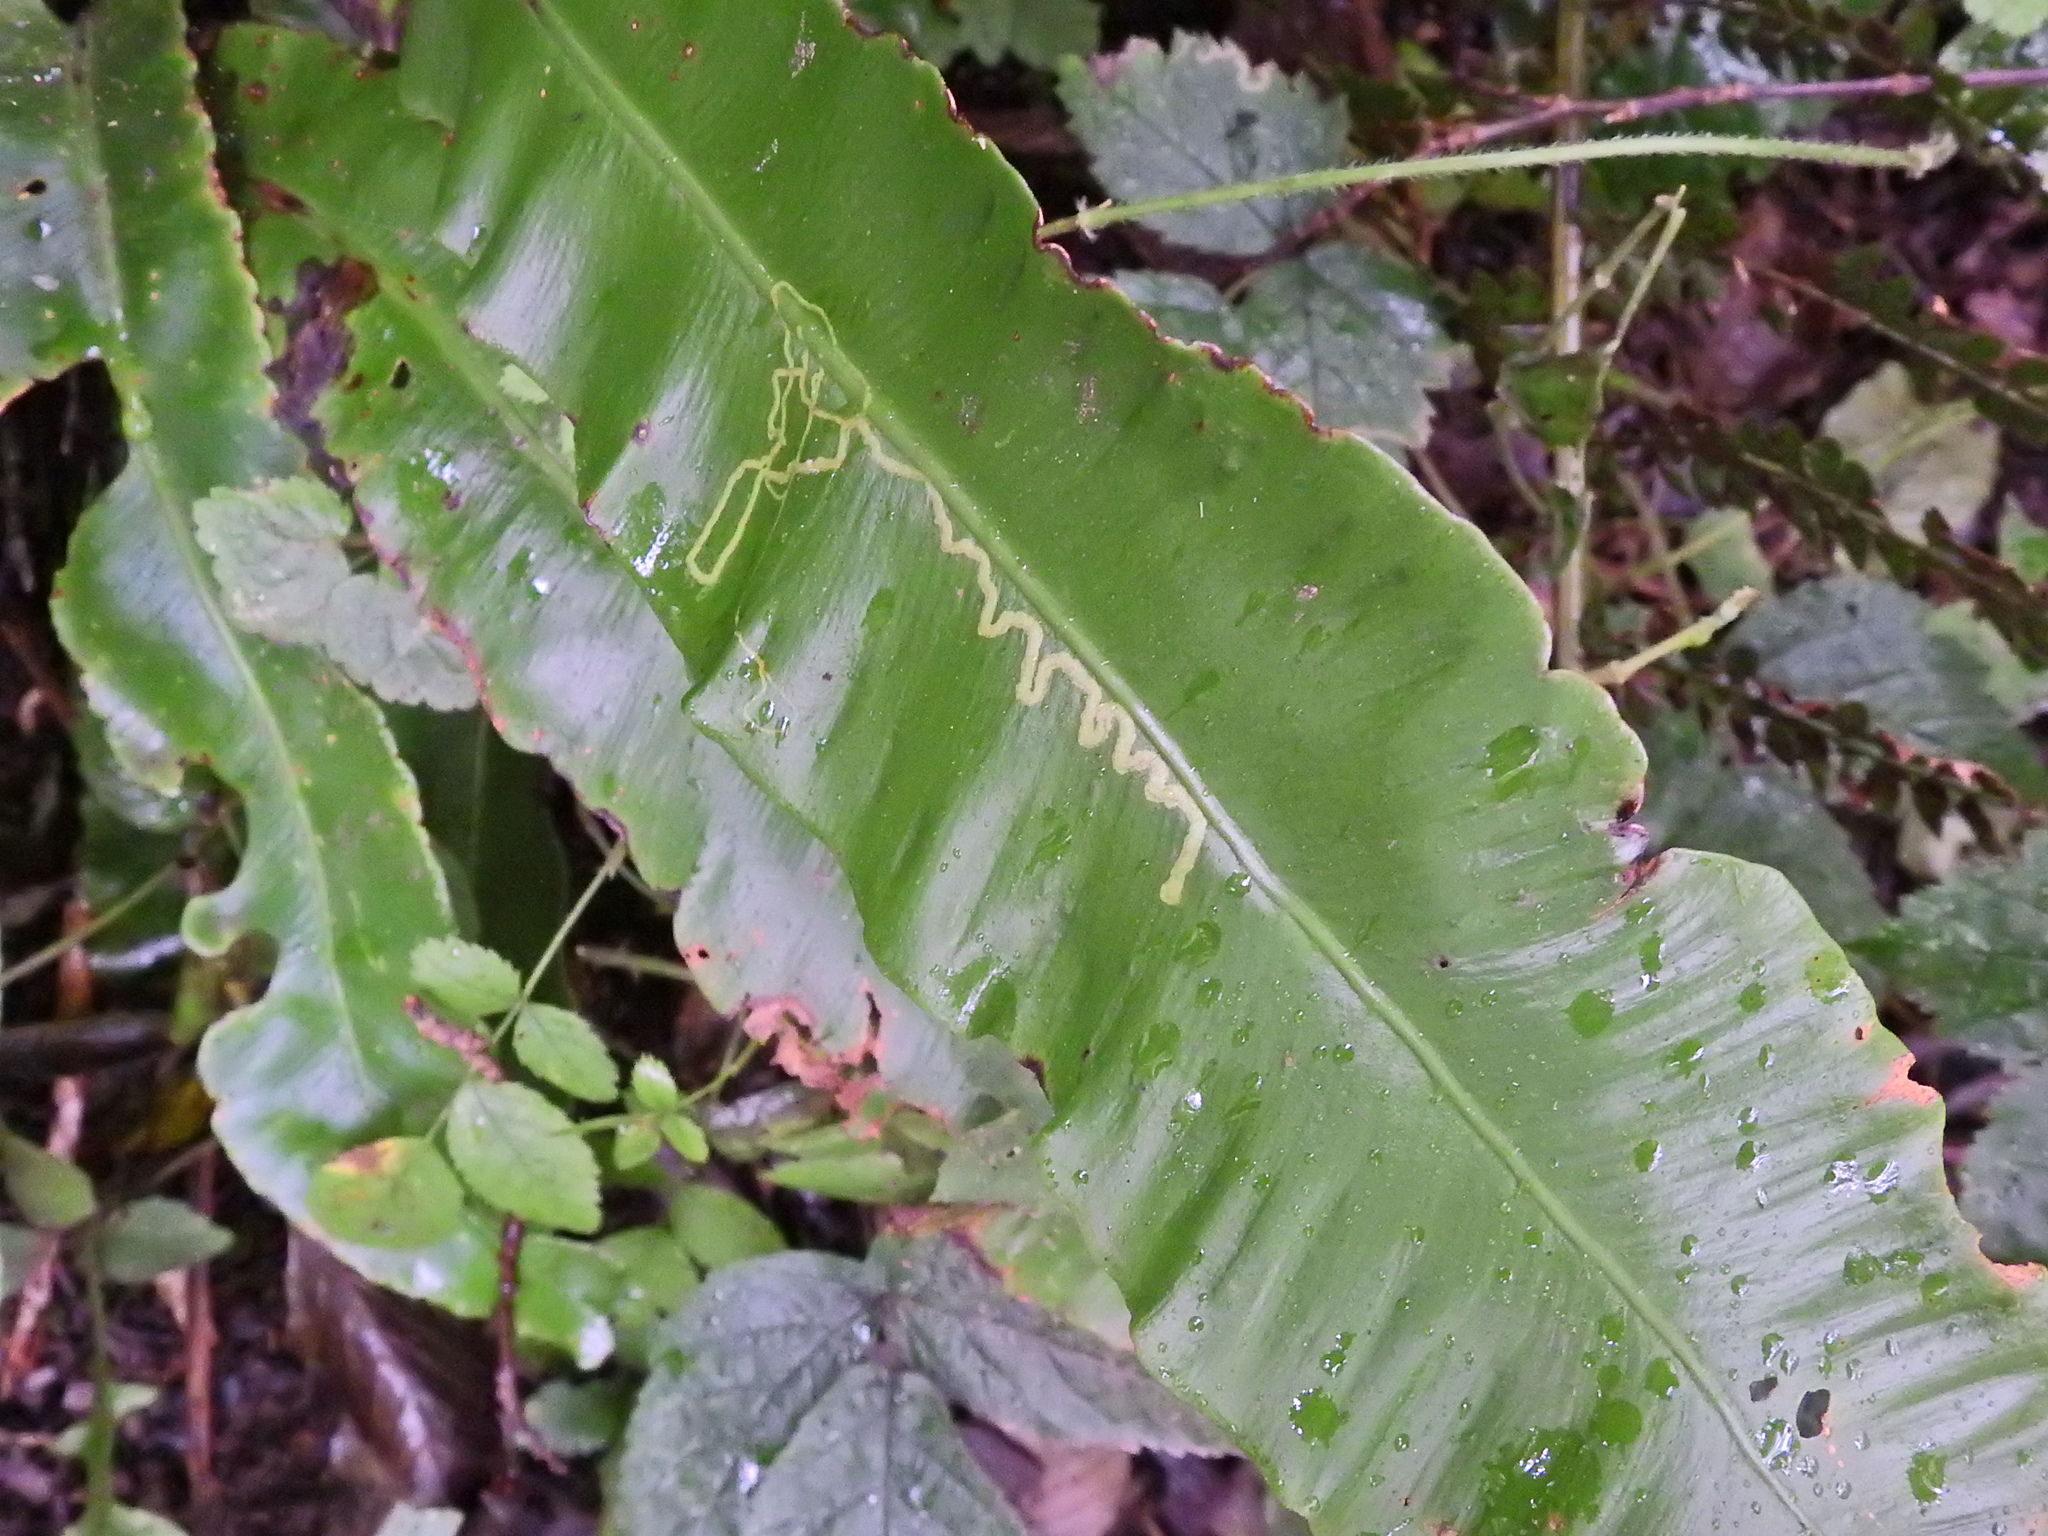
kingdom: Animalia
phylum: Arthropoda
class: Insecta
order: Diptera
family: Agromyzidae
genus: Phytomyza
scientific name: Phytomyza scolopendri
